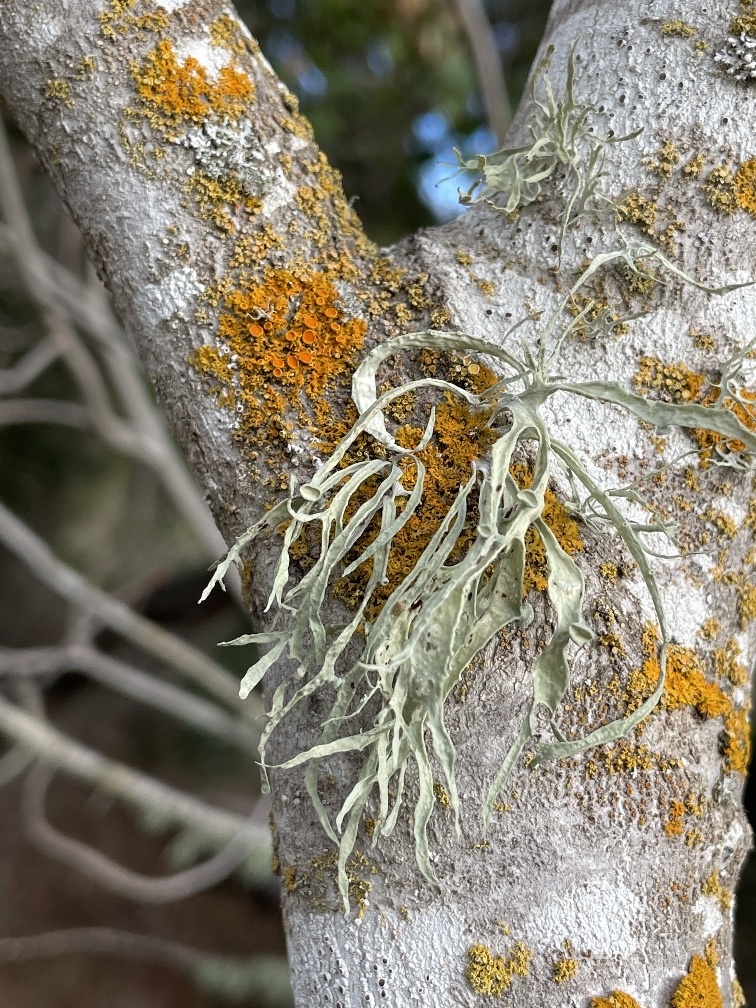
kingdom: Fungi
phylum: Ascomycota
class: Lecanoromycetes
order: Teloschistales
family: Teloschistaceae
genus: Xanthoria
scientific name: Xanthoria parietina
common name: Common orange lichen
